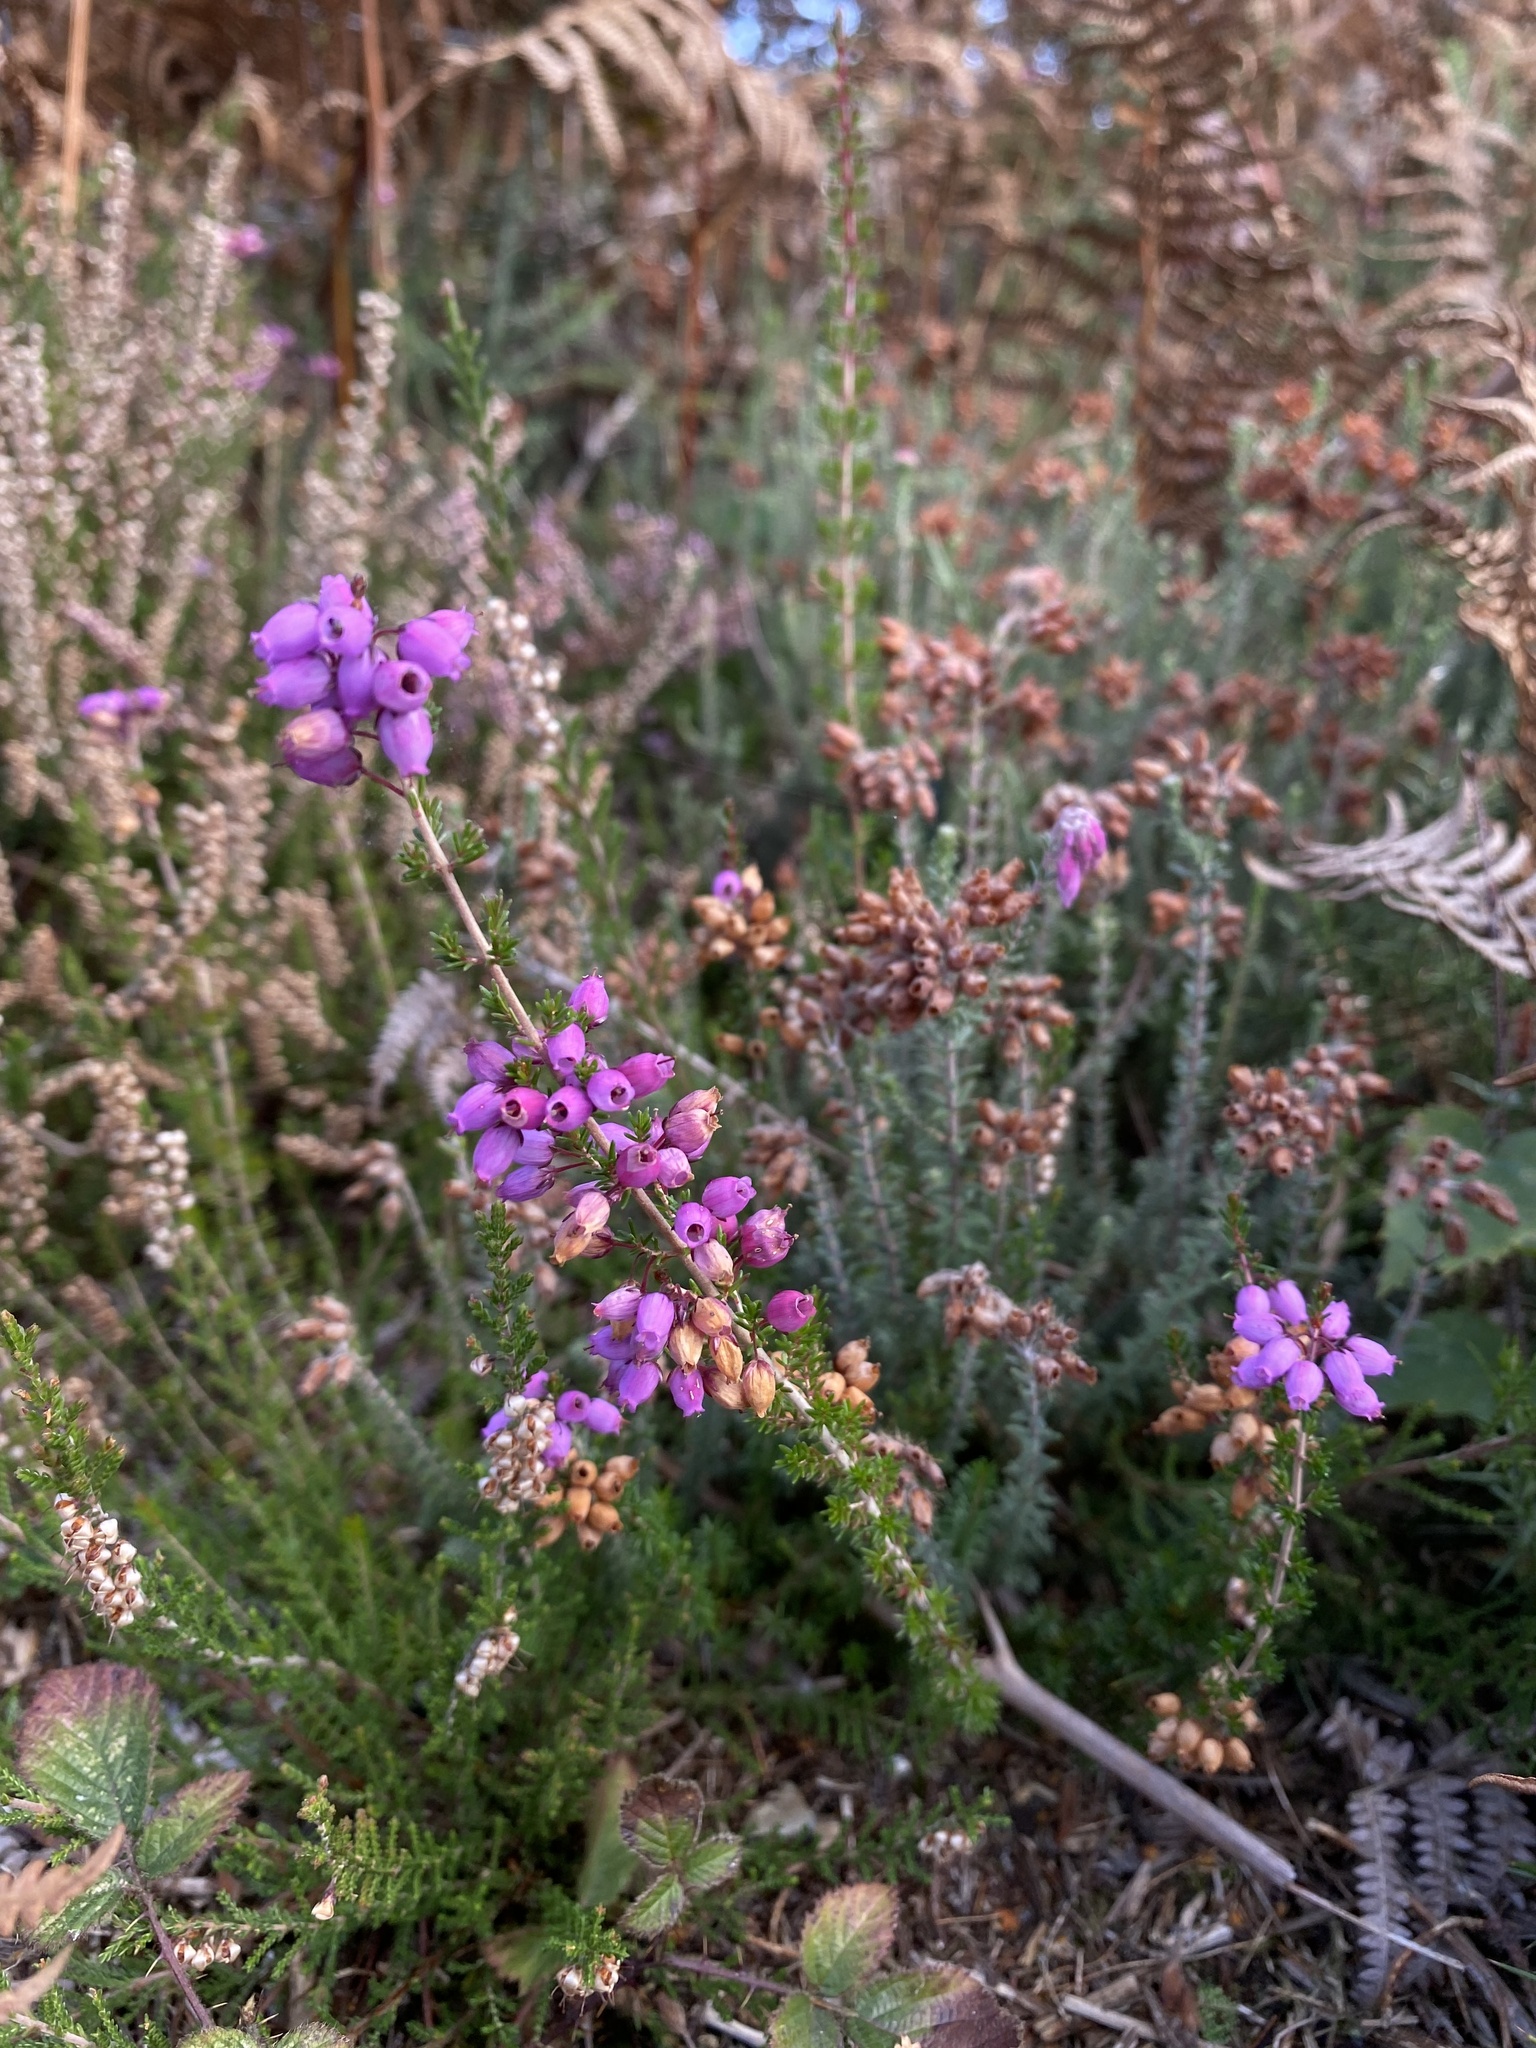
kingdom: Plantae
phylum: Tracheophyta
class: Magnoliopsida
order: Ericales
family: Ericaceae
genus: Erica
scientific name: Erica cinerea
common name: Bell heather
